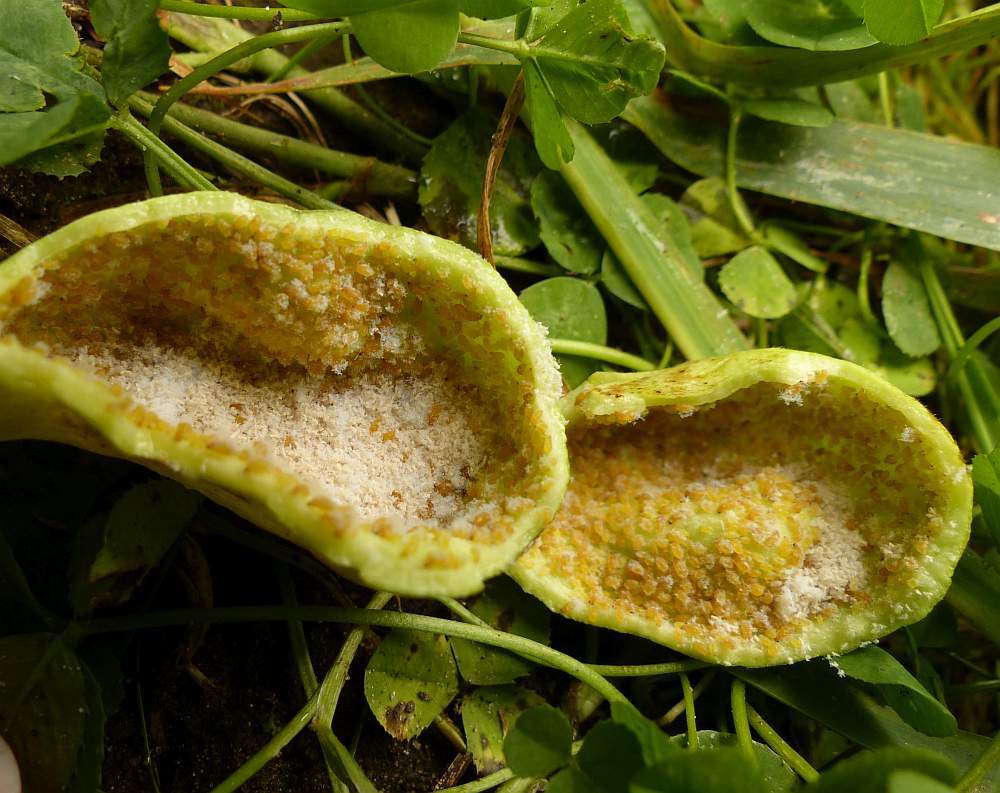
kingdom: Animalia
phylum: Arthropoda
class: Insecta
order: Hemiptera
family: Aphididae
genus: Melaphis
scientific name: Melaphis rhois
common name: Sumac gall aphid
